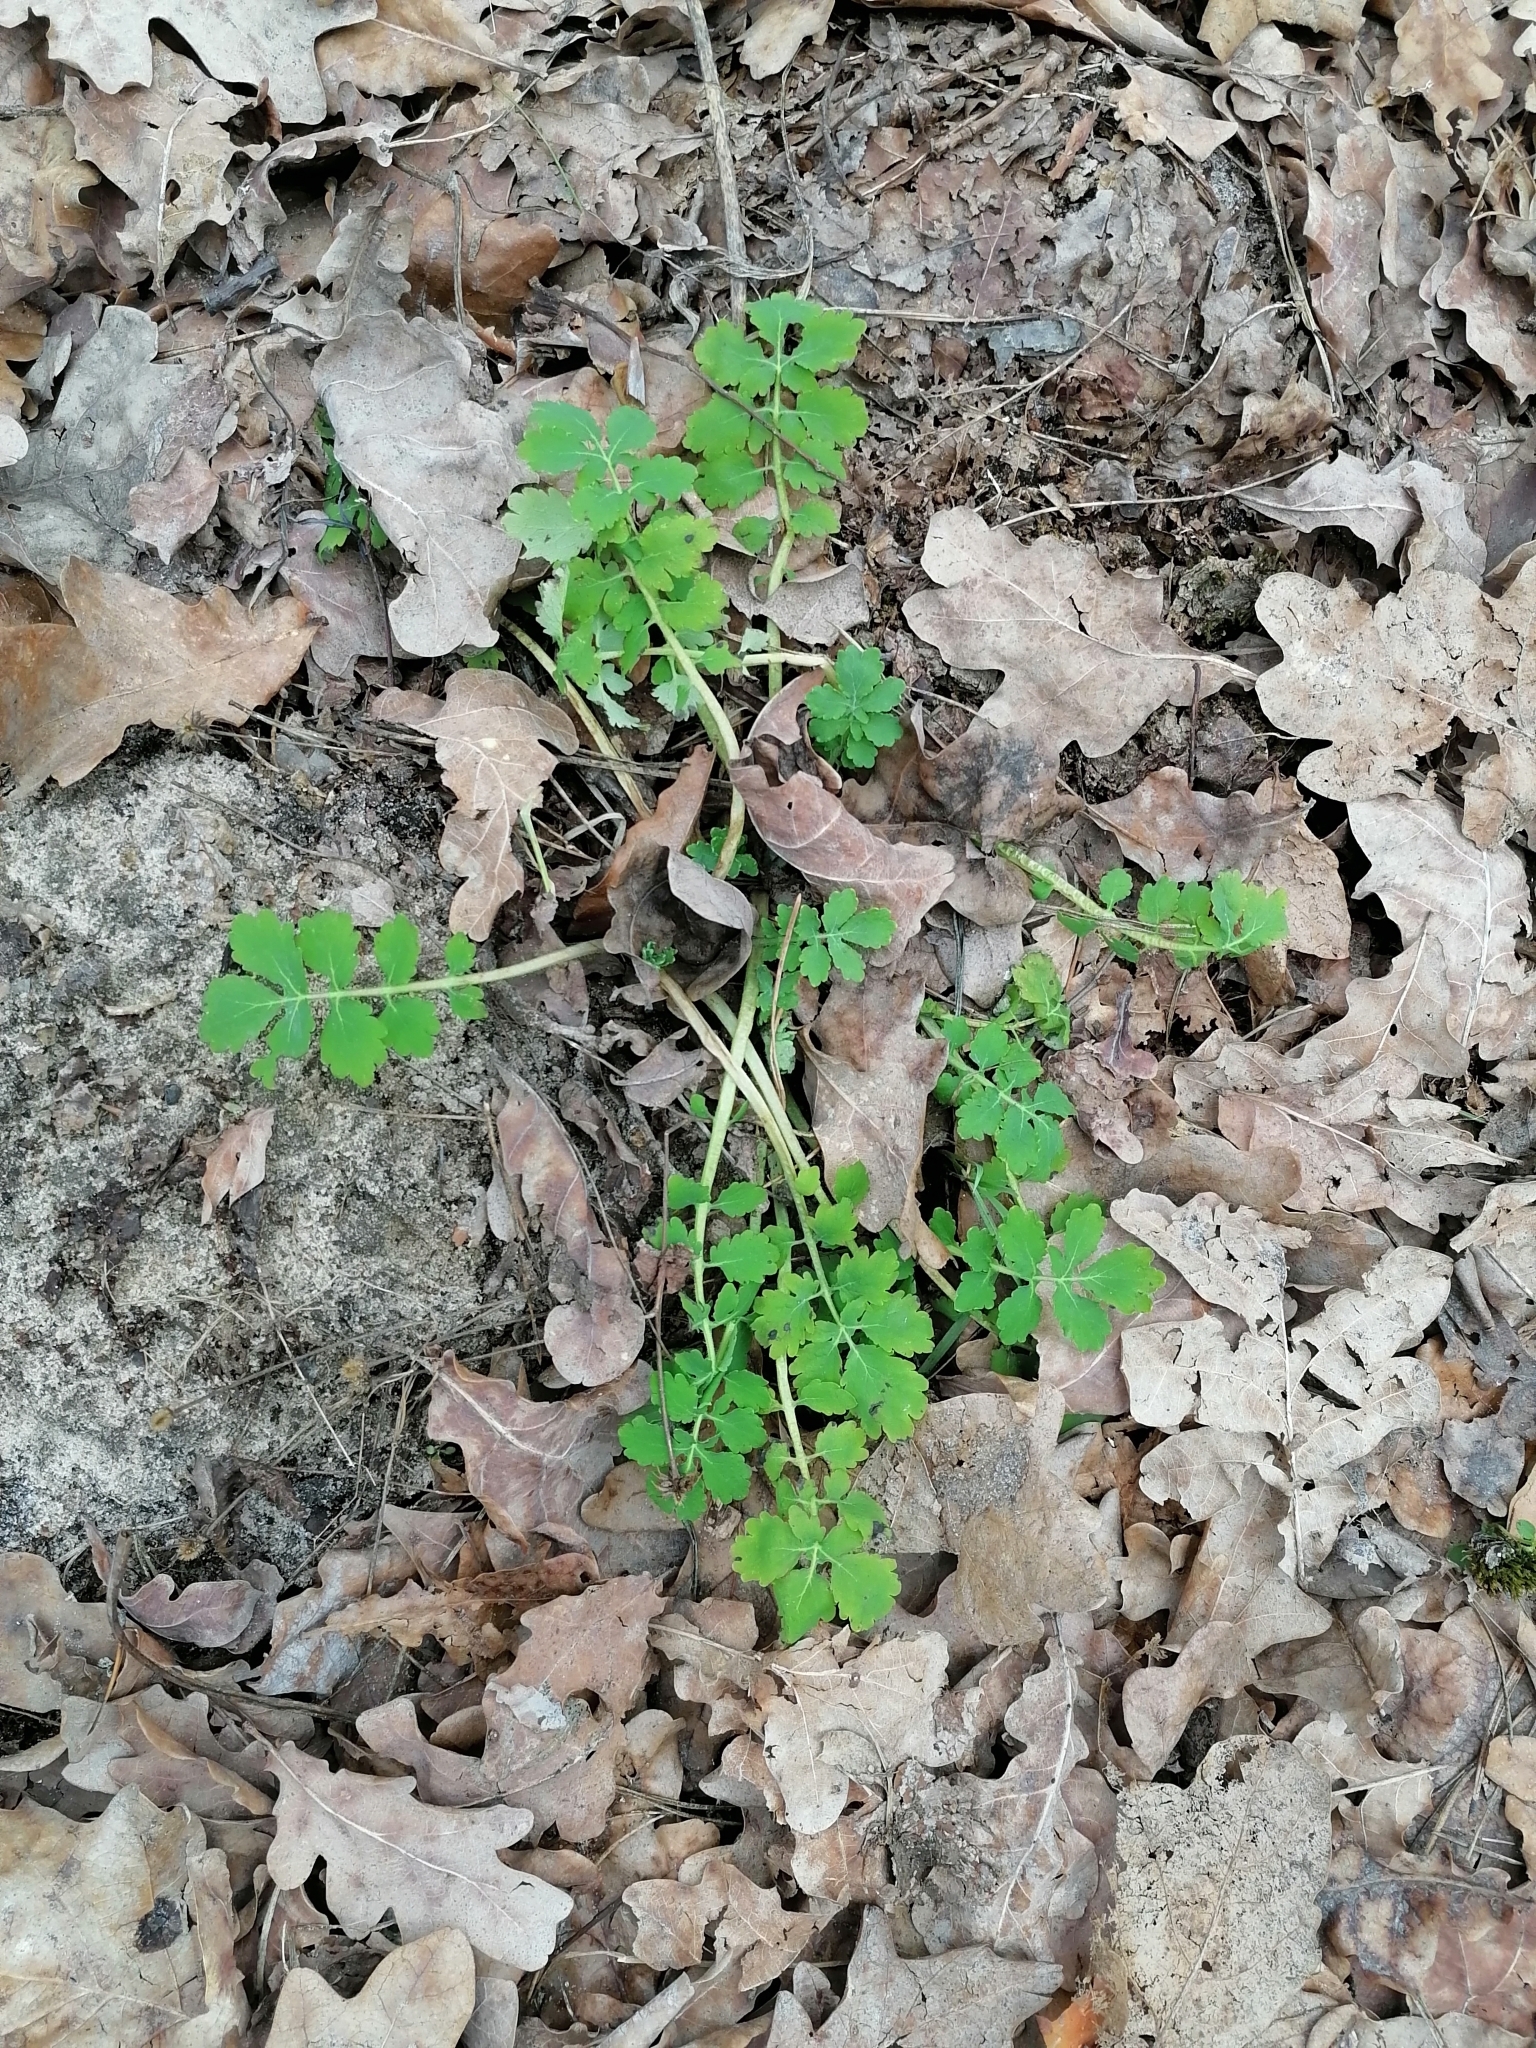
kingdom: Plantae
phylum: Tracheophyta
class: Magnoliopsida
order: Ranunculales
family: Papaveraceae
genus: Chelidonium
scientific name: Chelidonium majus
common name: Greater celandine
